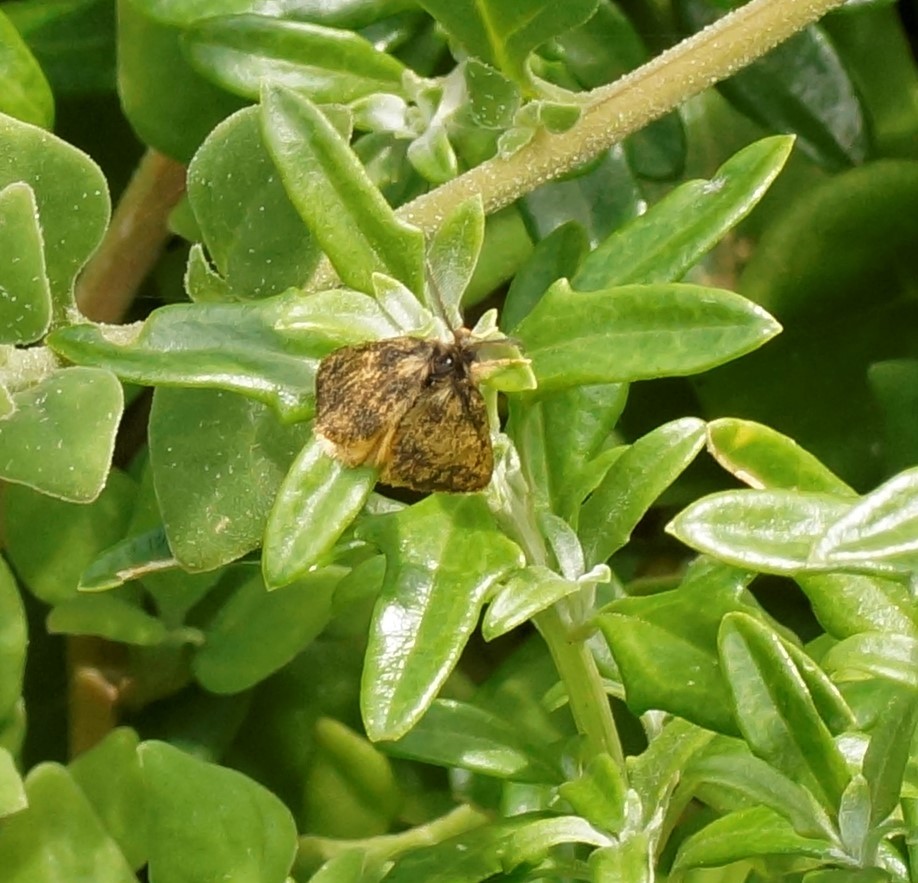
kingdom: Animalia
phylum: Arthropoda
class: Insecta
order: Lepidoptera
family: Erebidae
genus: Euproctis
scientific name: Euproctis semifusca
